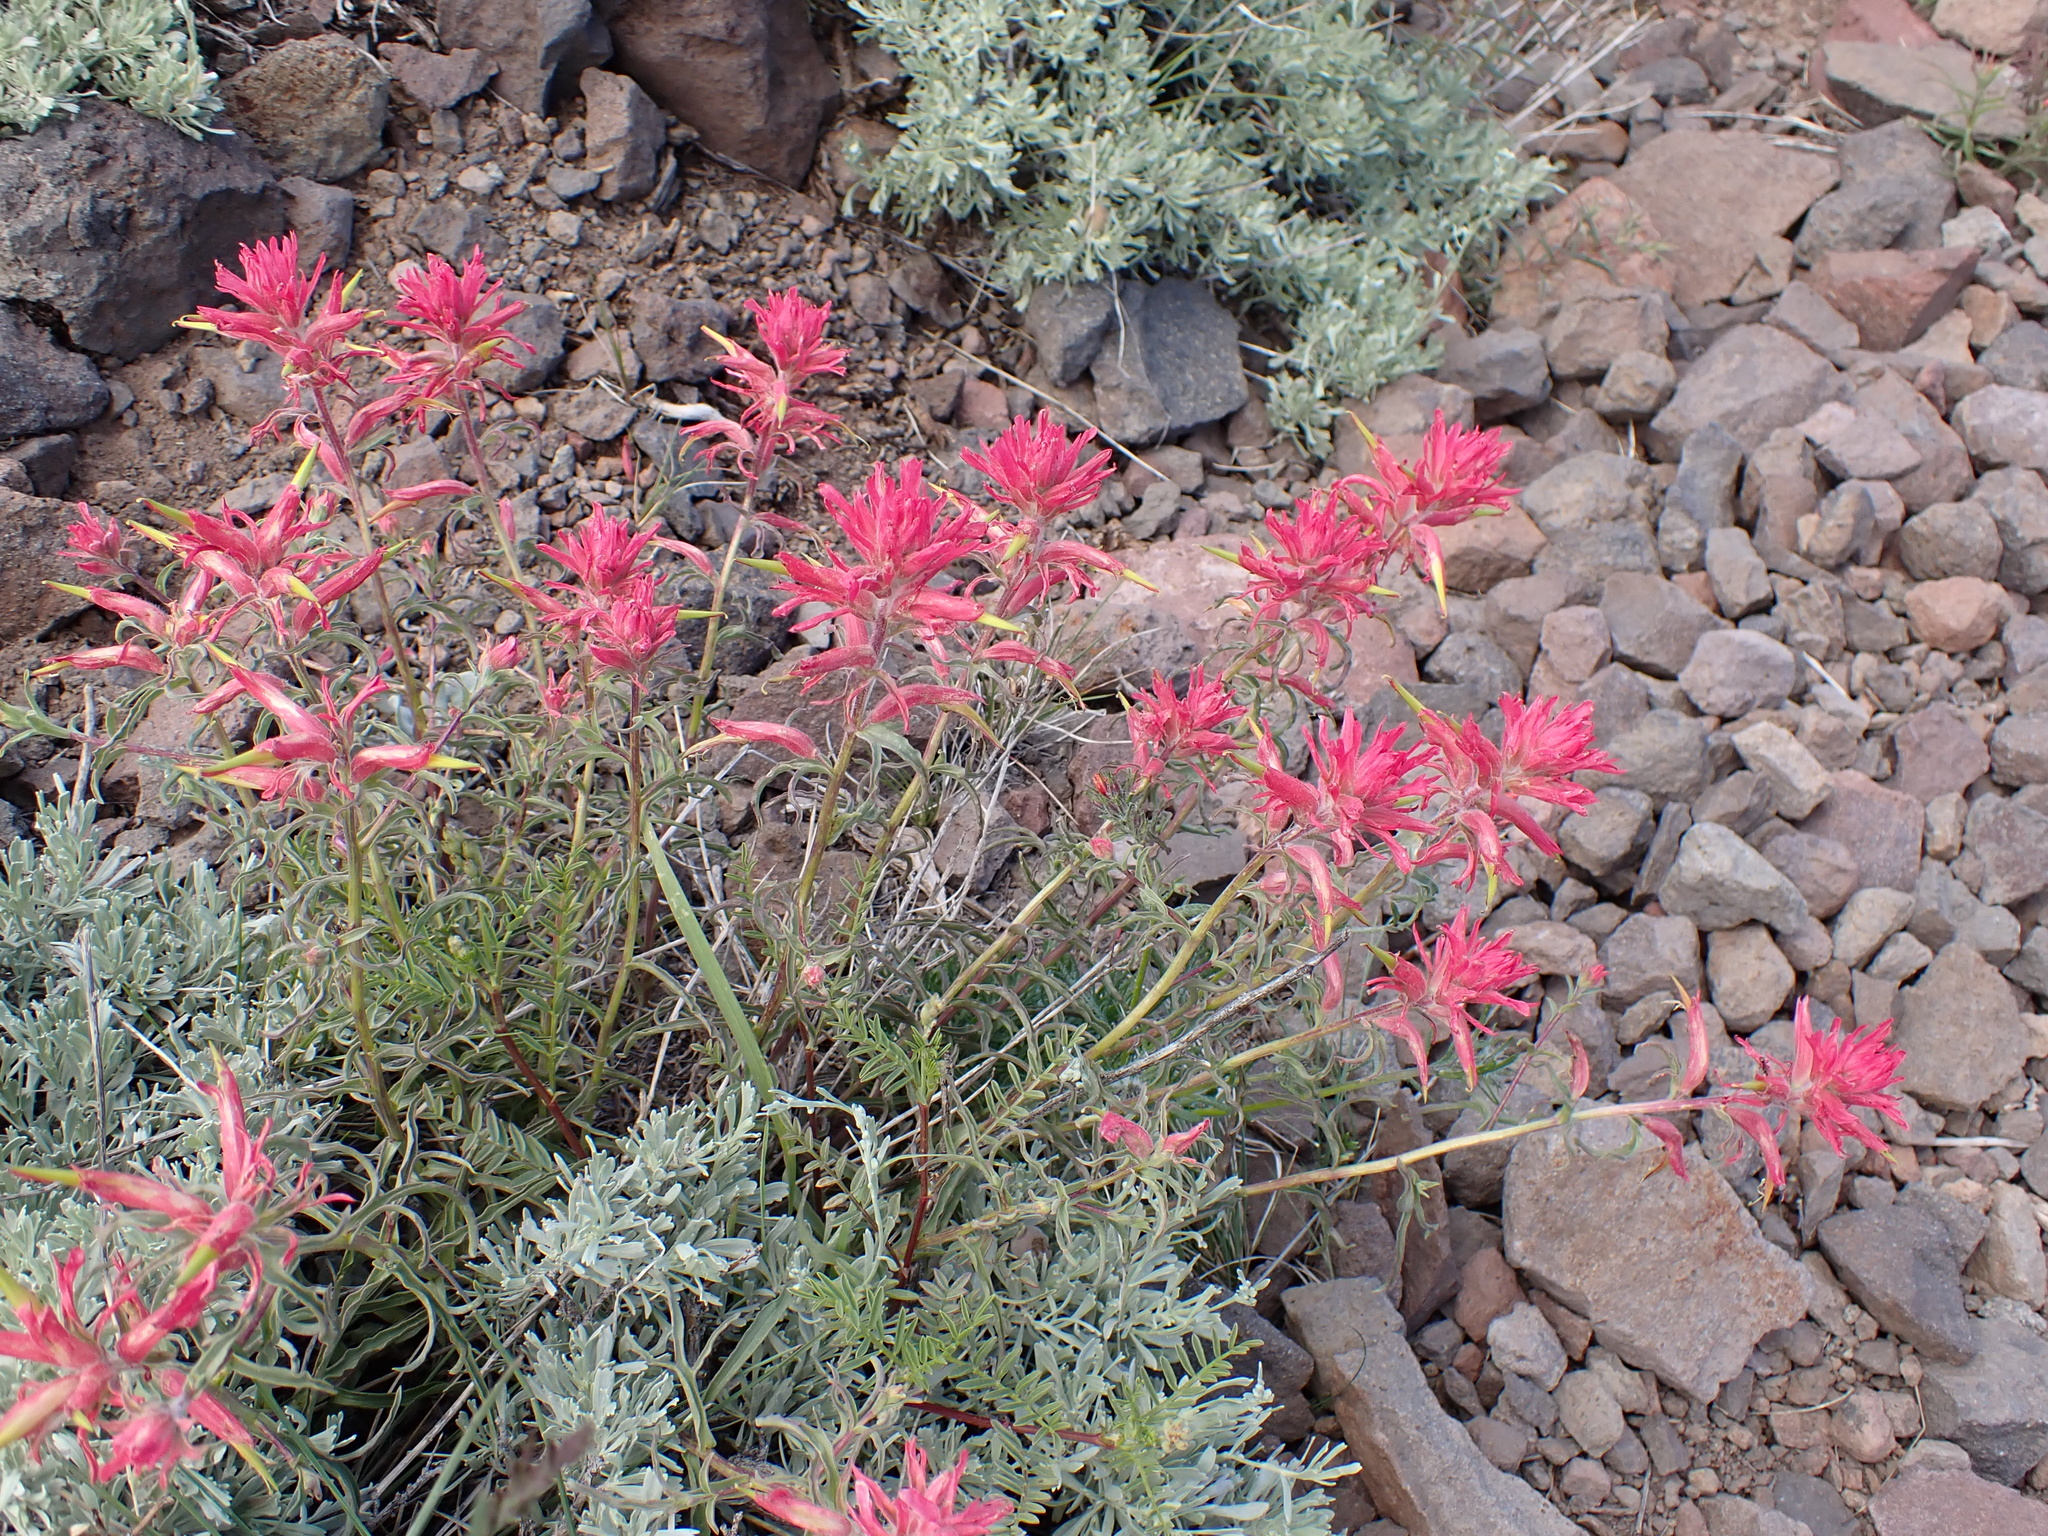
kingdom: Plantae
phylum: Tracheophyta
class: Magnoliopsida
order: Lamiales
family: Orobanchaceae
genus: Castilleja
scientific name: Castilleja linariifolia
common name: Wyoming paintbrush
